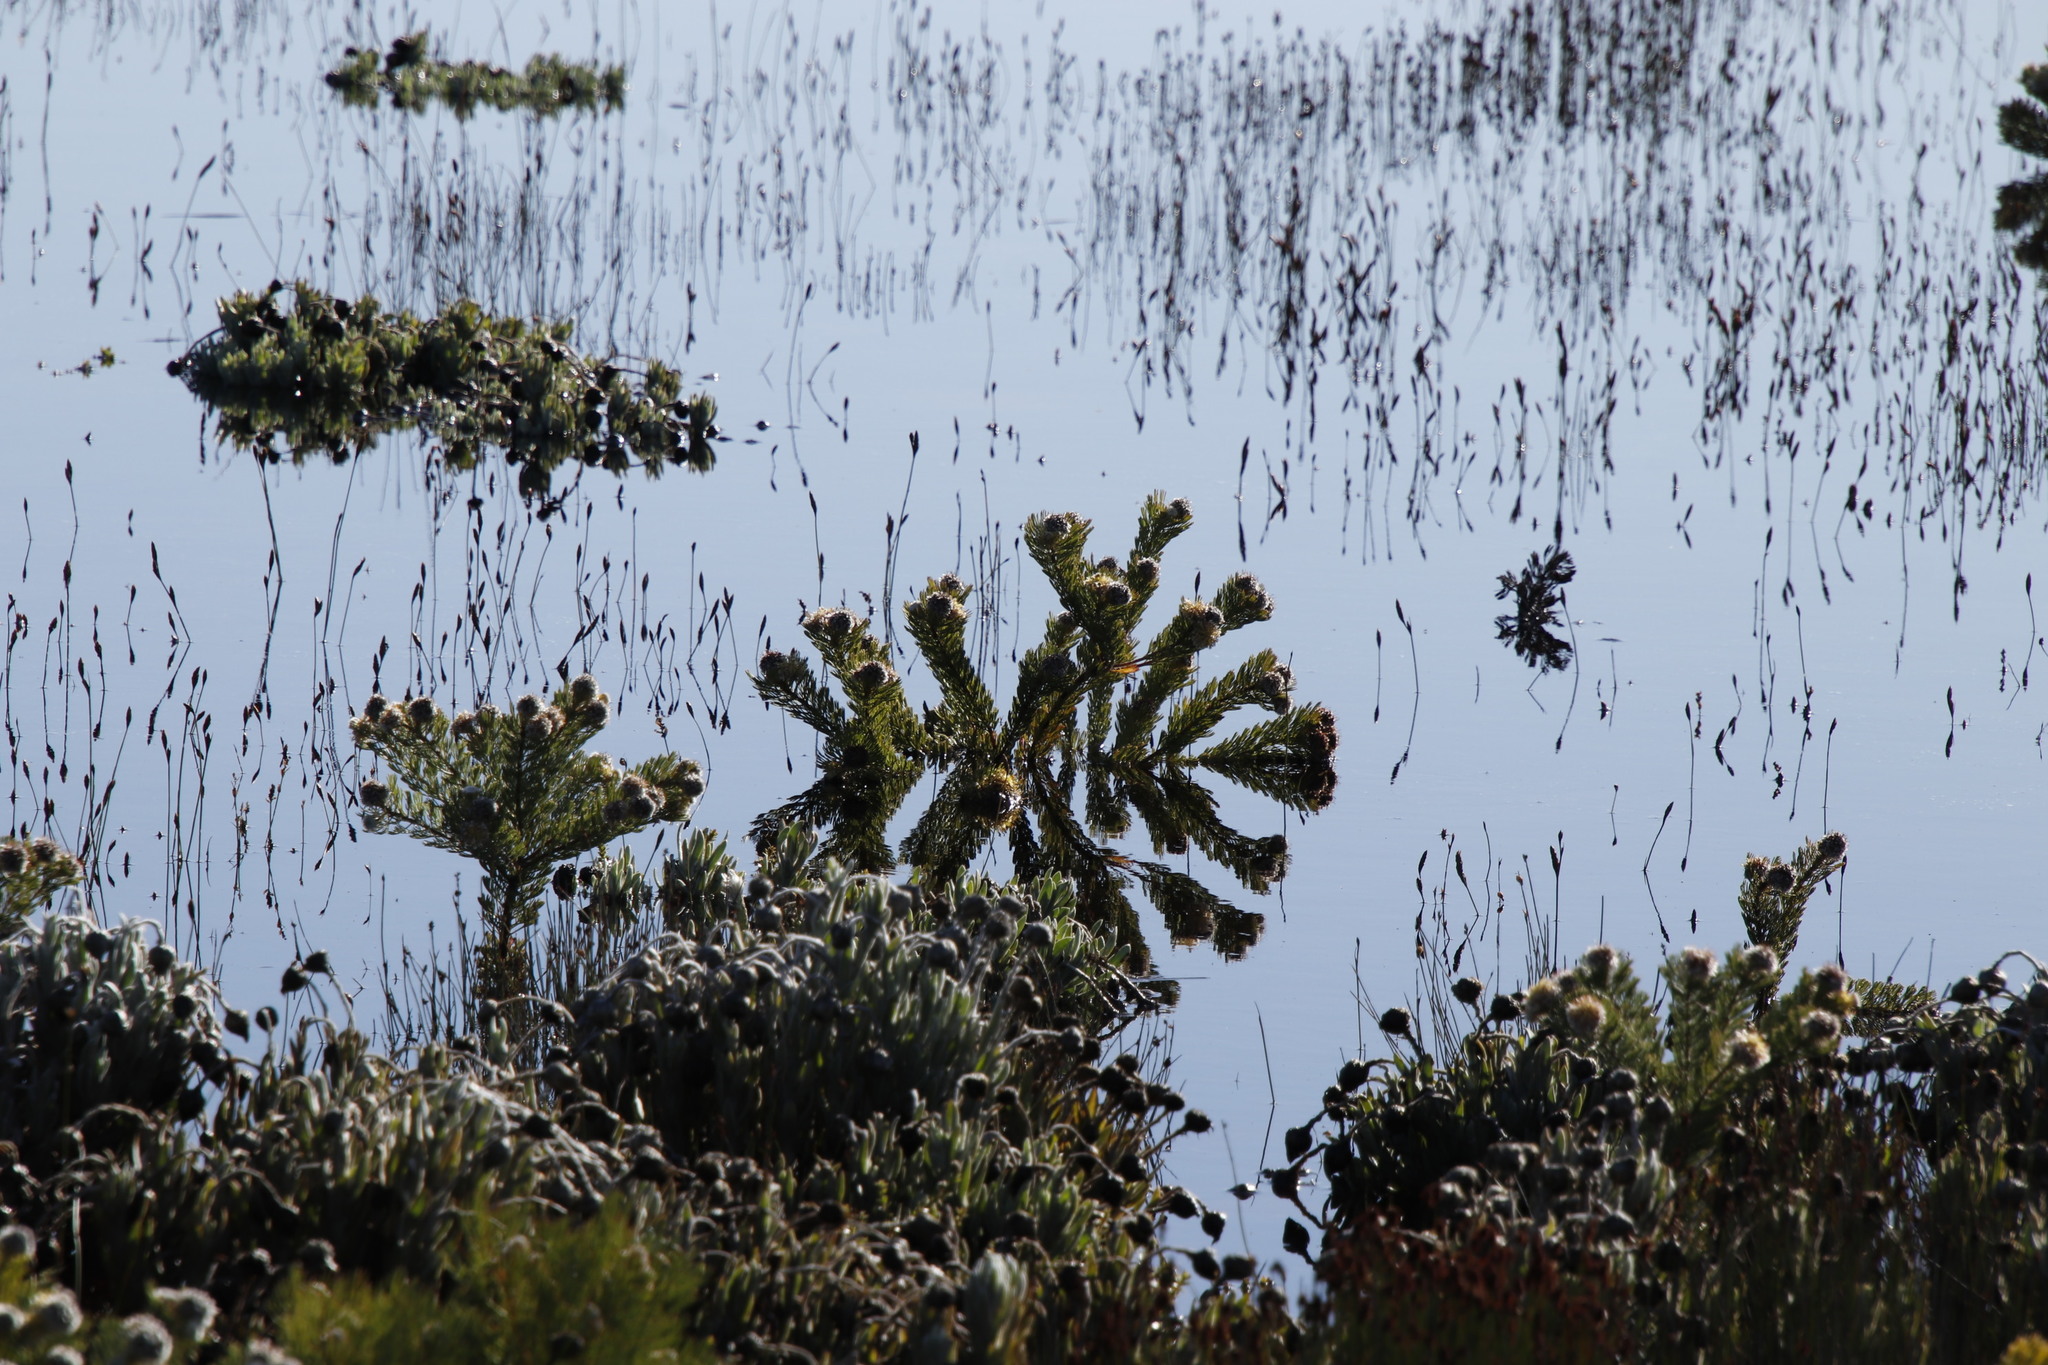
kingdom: Plantae
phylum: Tracheophyta
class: Magnoliopsida
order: Proteales
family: Proteaceae
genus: Serruria
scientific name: Serruria villosa
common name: Golden spiderhead
